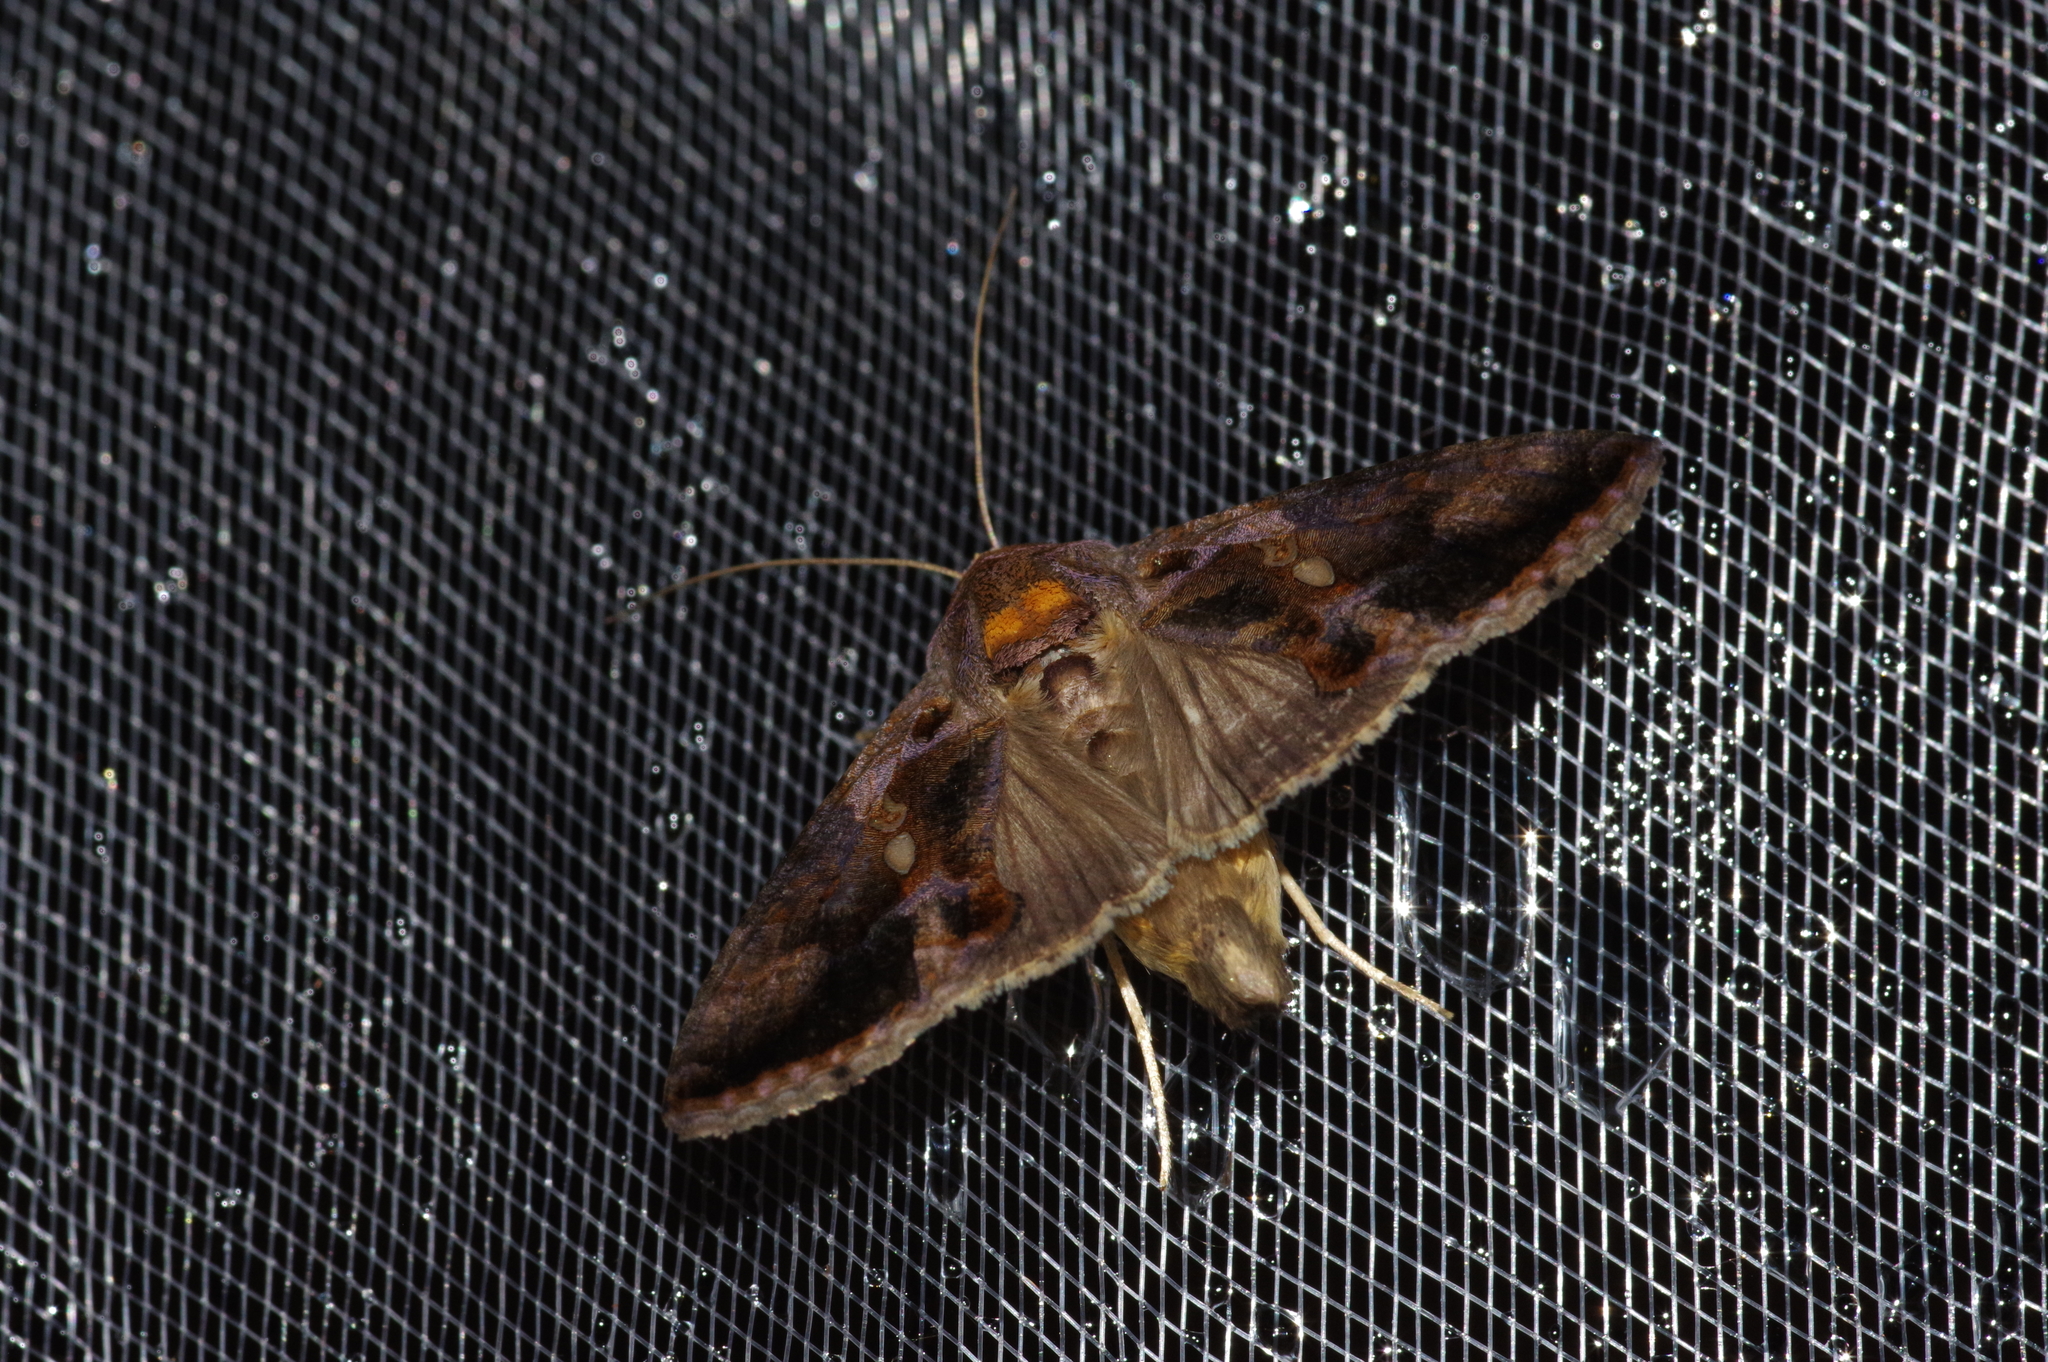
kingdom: Animalia
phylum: Arthropoda
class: Insecta
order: Lepidoptera
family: Noctuidae
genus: Chrysodeixis
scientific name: Chrysodeixis eriosoma
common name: Green garden looper
